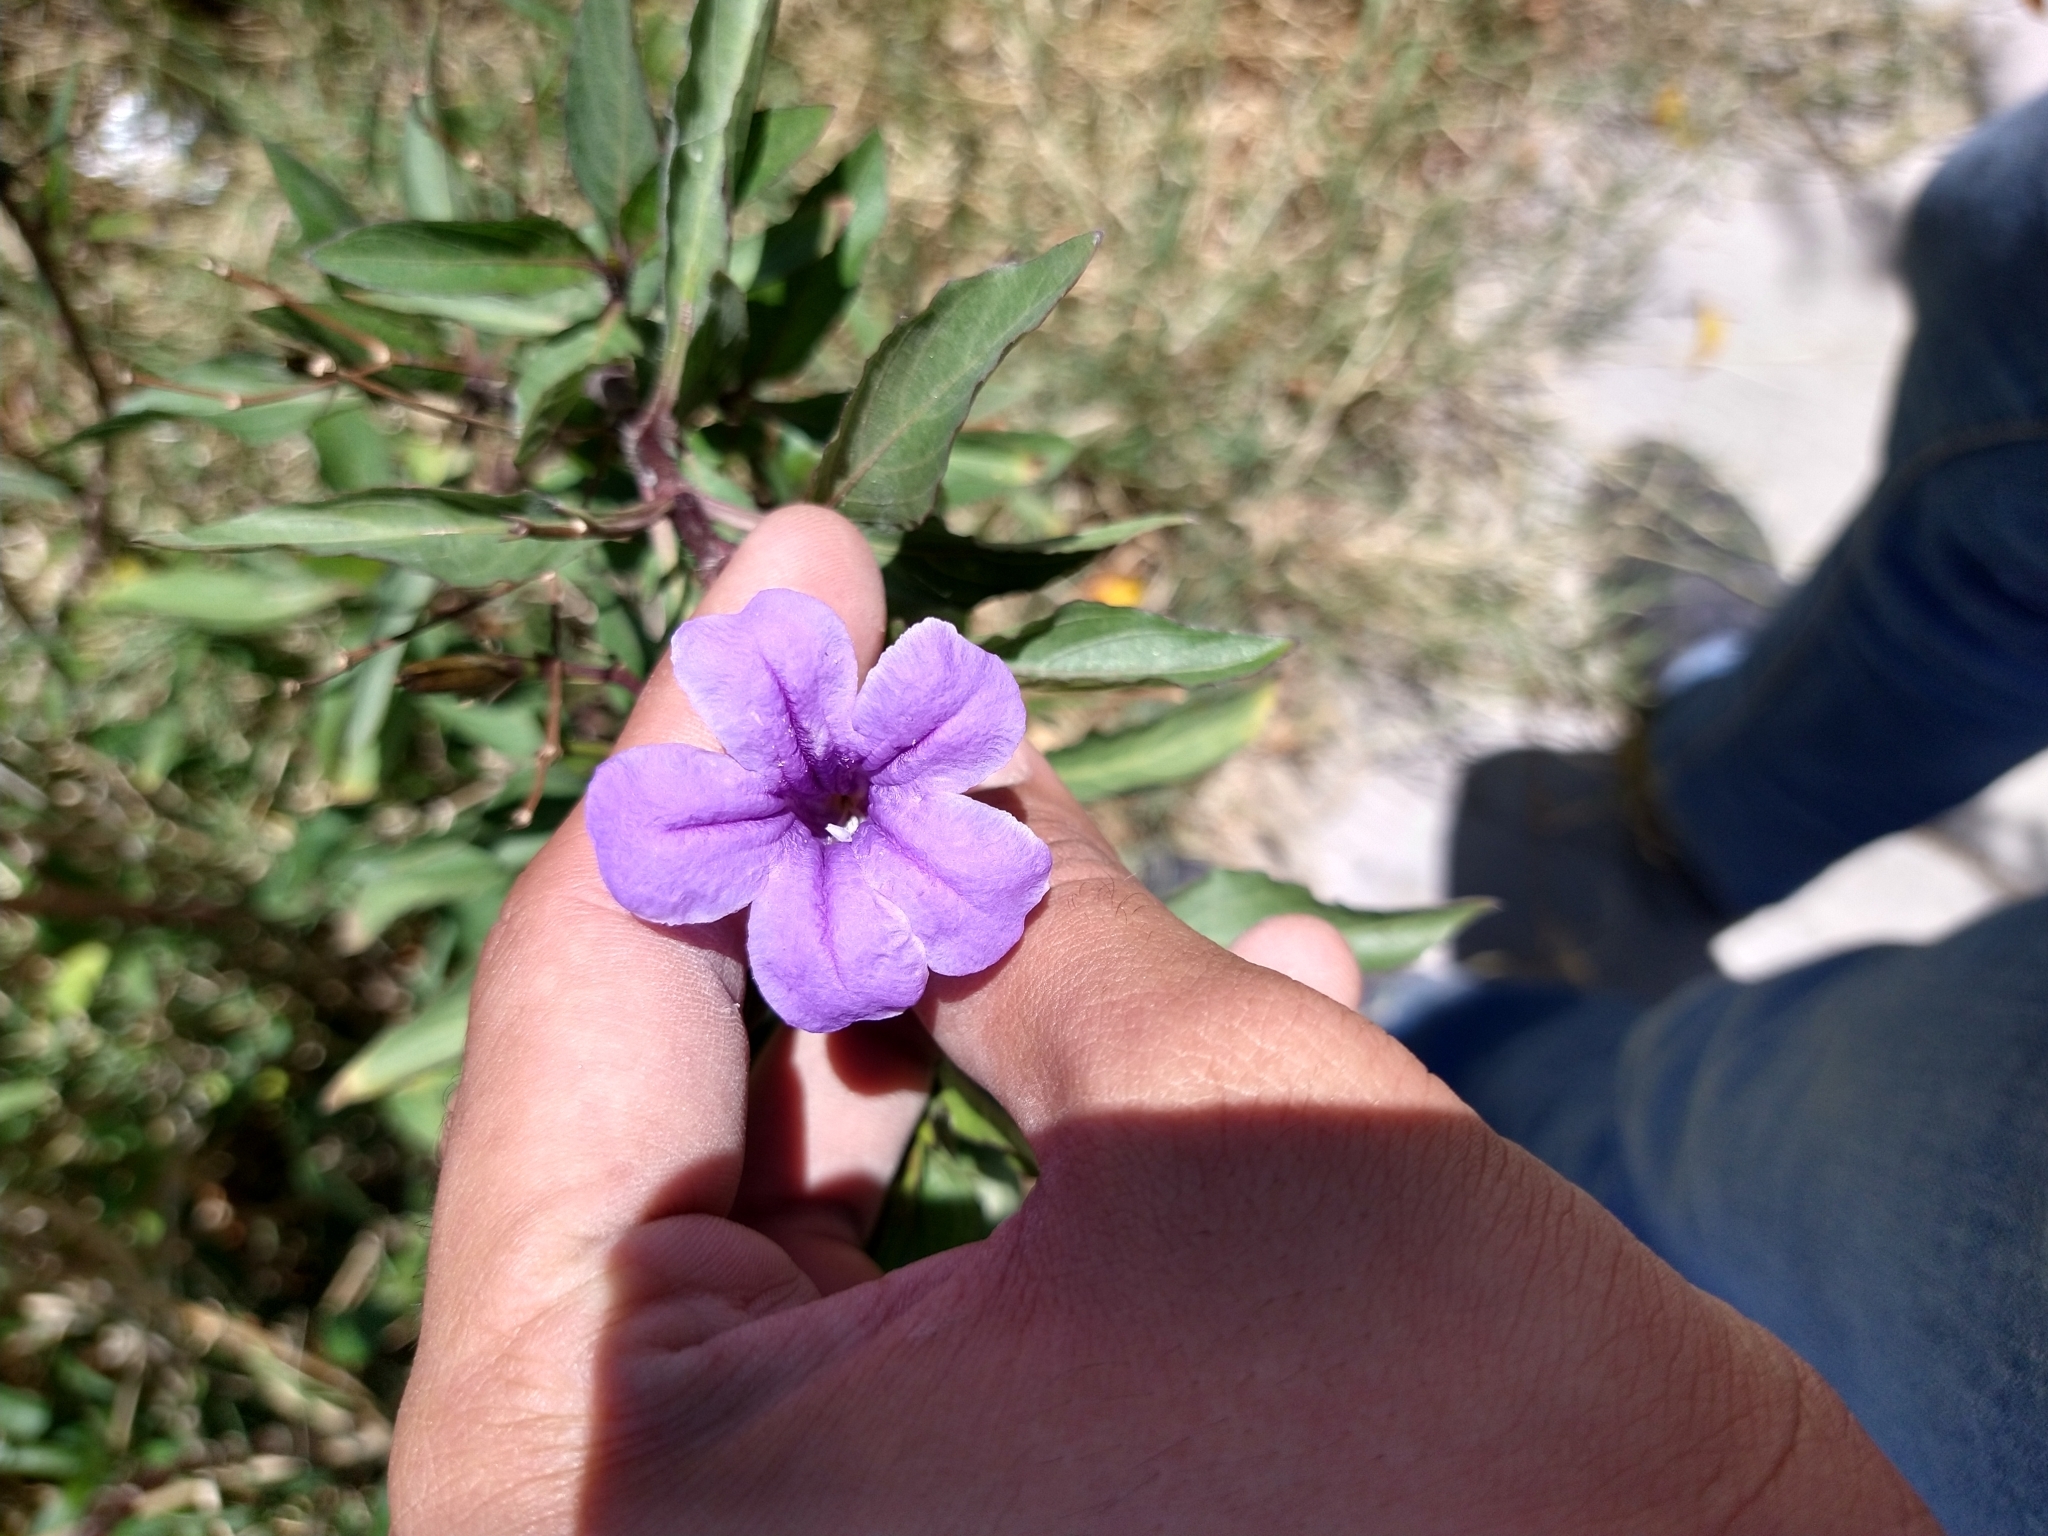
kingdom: Plantae
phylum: Tracheophyta
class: Magnoliopsida
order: Lamiales
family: Acanthaceae
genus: Ruellia
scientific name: Ruellia simplex
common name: Softseed wild petunia
